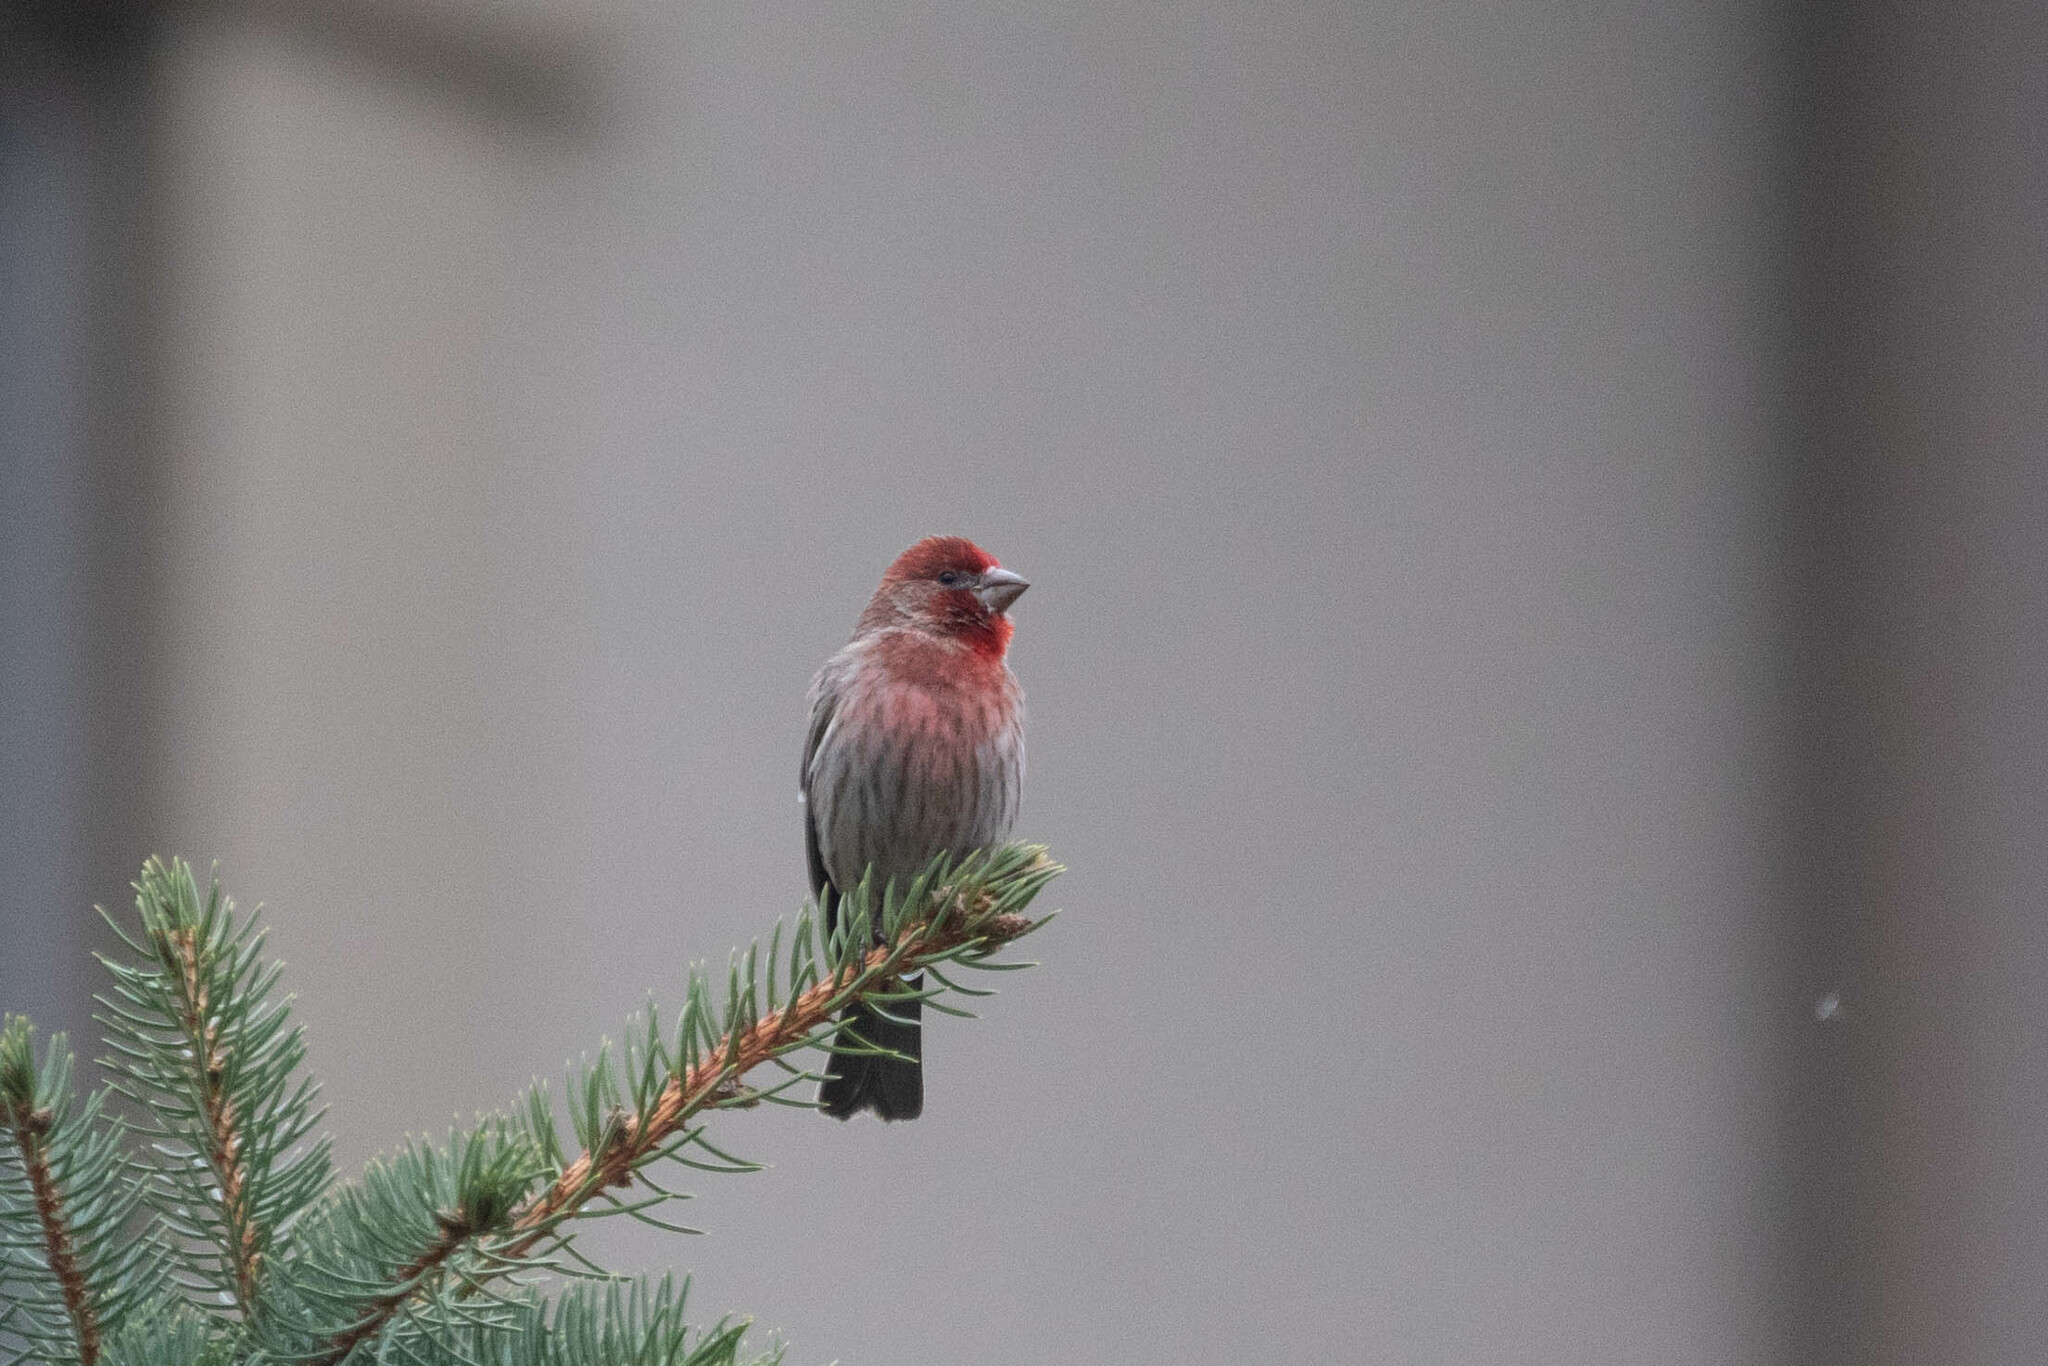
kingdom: Animalia
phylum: Chordata
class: Aves
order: Passeriformes
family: Fringillidae
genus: Haemorhous
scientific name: Haemorhous mexicanus
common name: House finch
